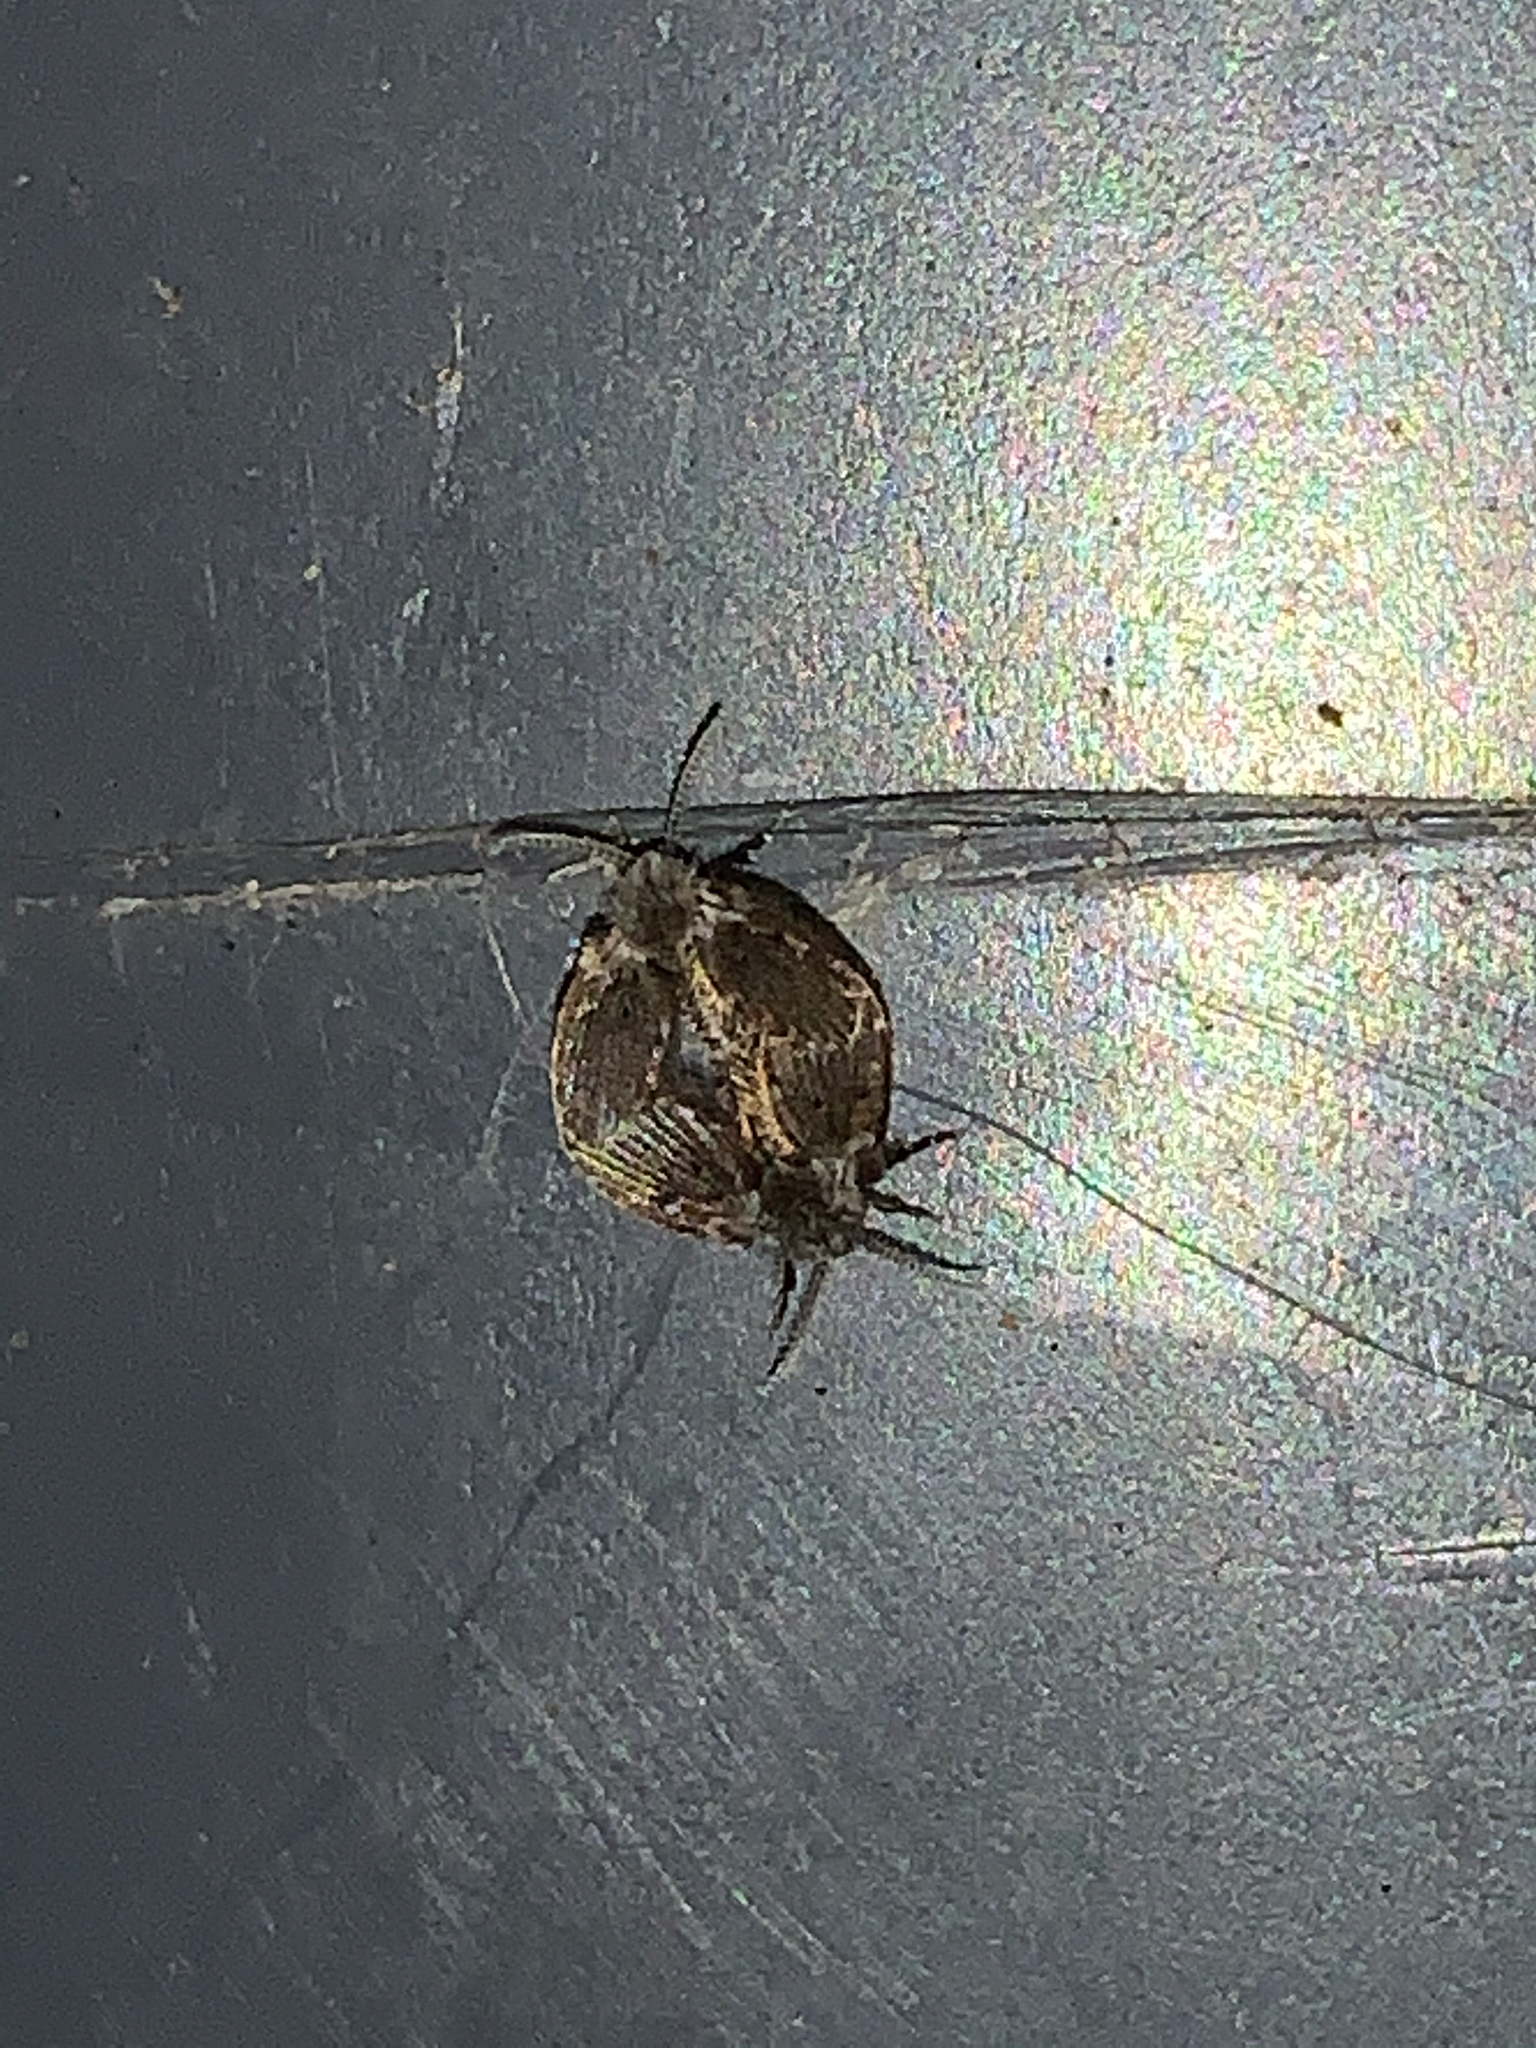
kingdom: Animalia
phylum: Arthropoda
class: Insecta
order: Diptera
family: Psychodidae
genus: Clogmia
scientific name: Clogmia albipunctatus
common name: White-spotted moth fly
